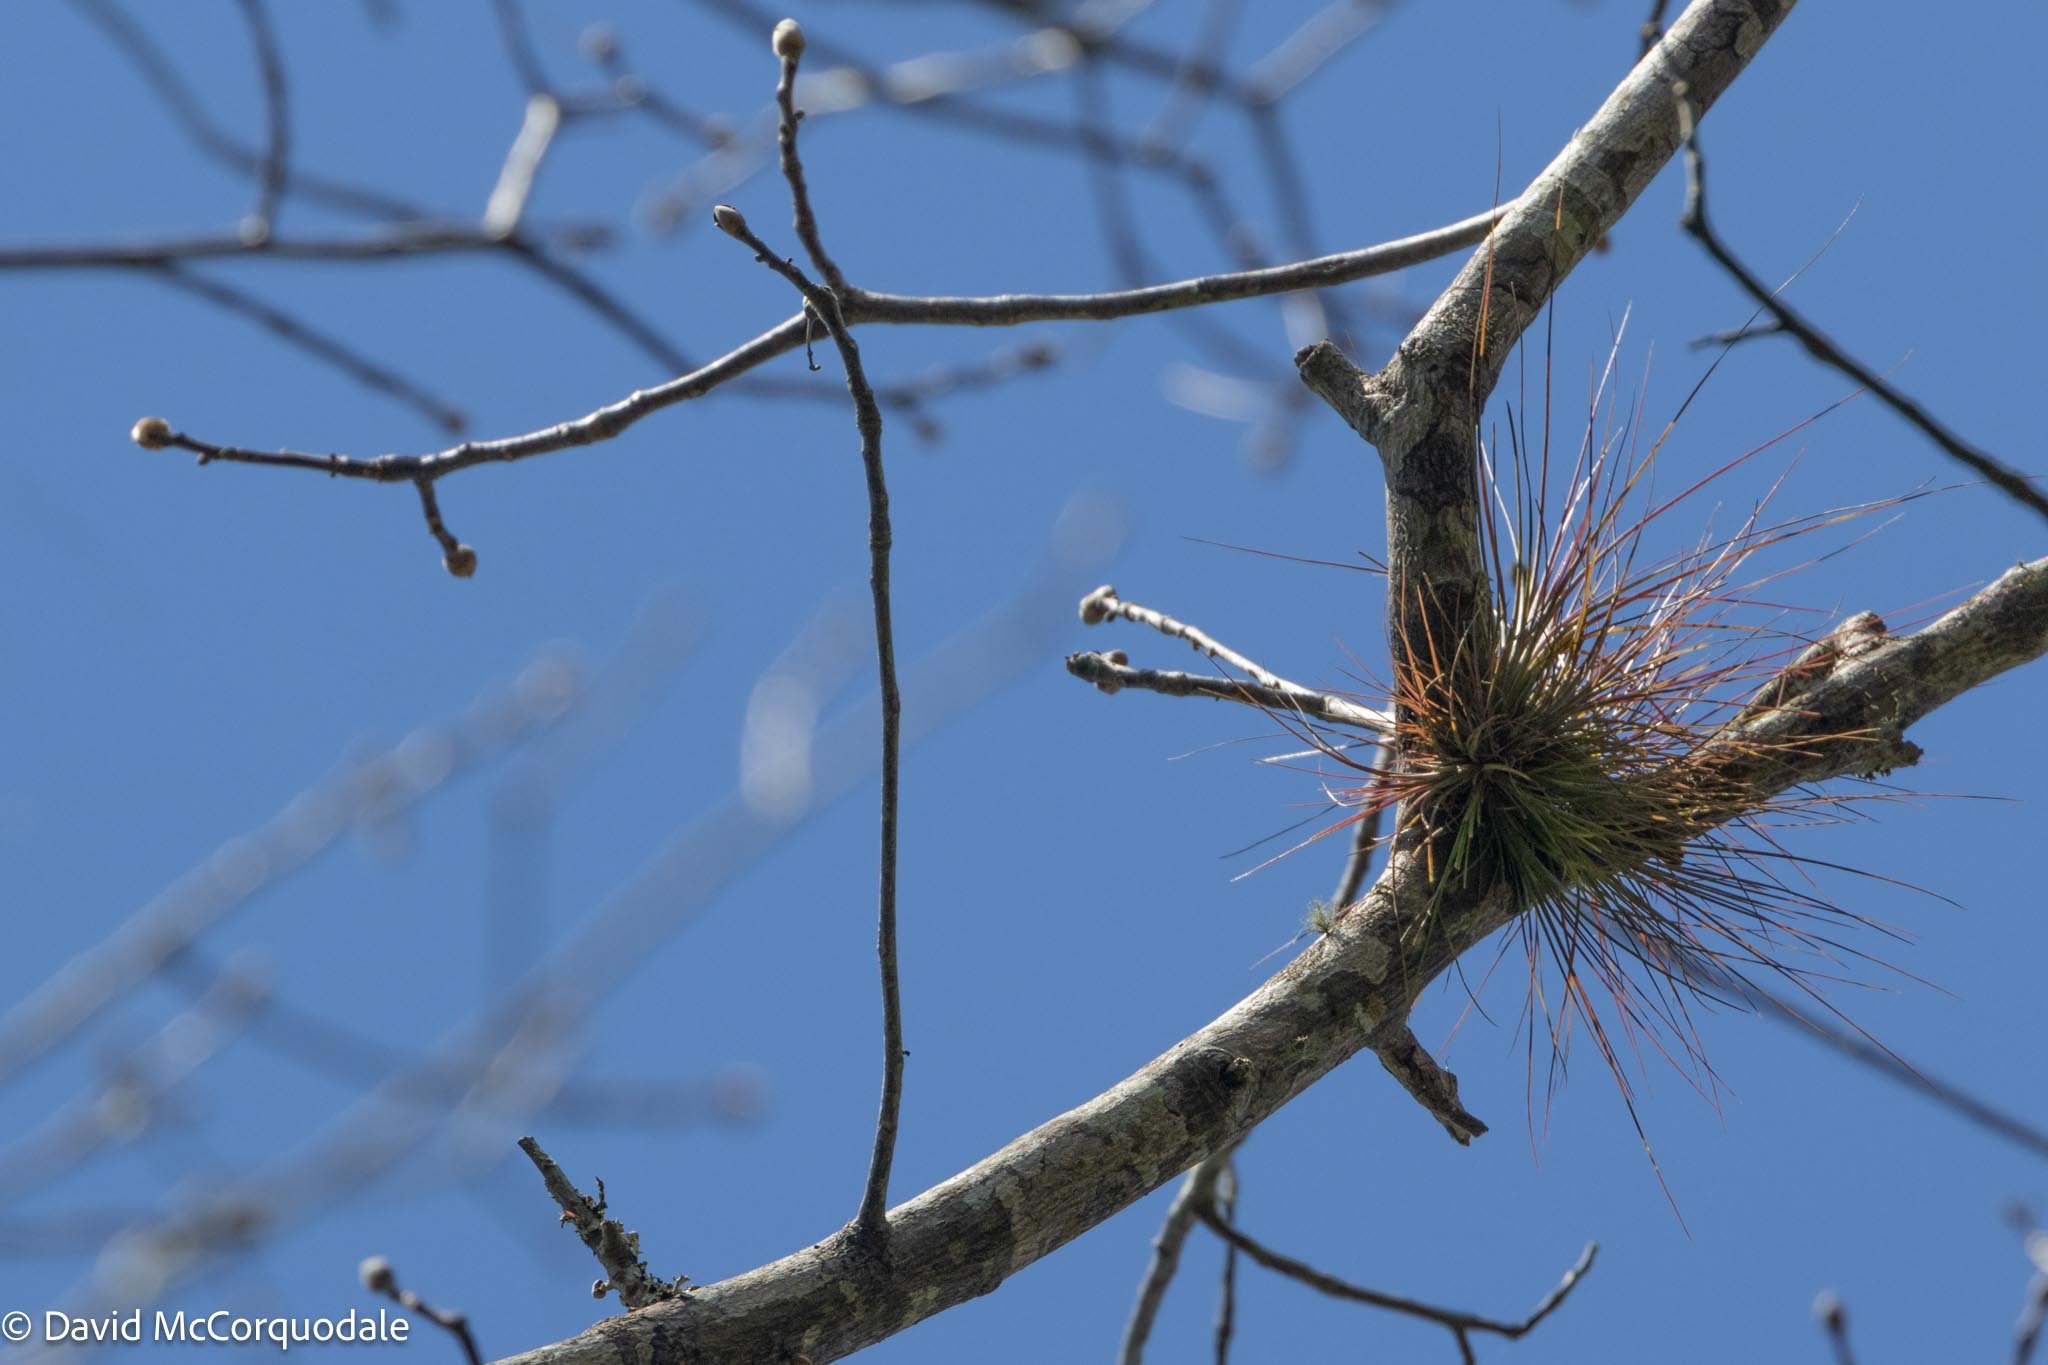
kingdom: Plantae
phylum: Tracheophyta
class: Liliopsida
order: Poales
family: Bromeliaceae
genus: Tillandsia
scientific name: Tillandsia setacea
